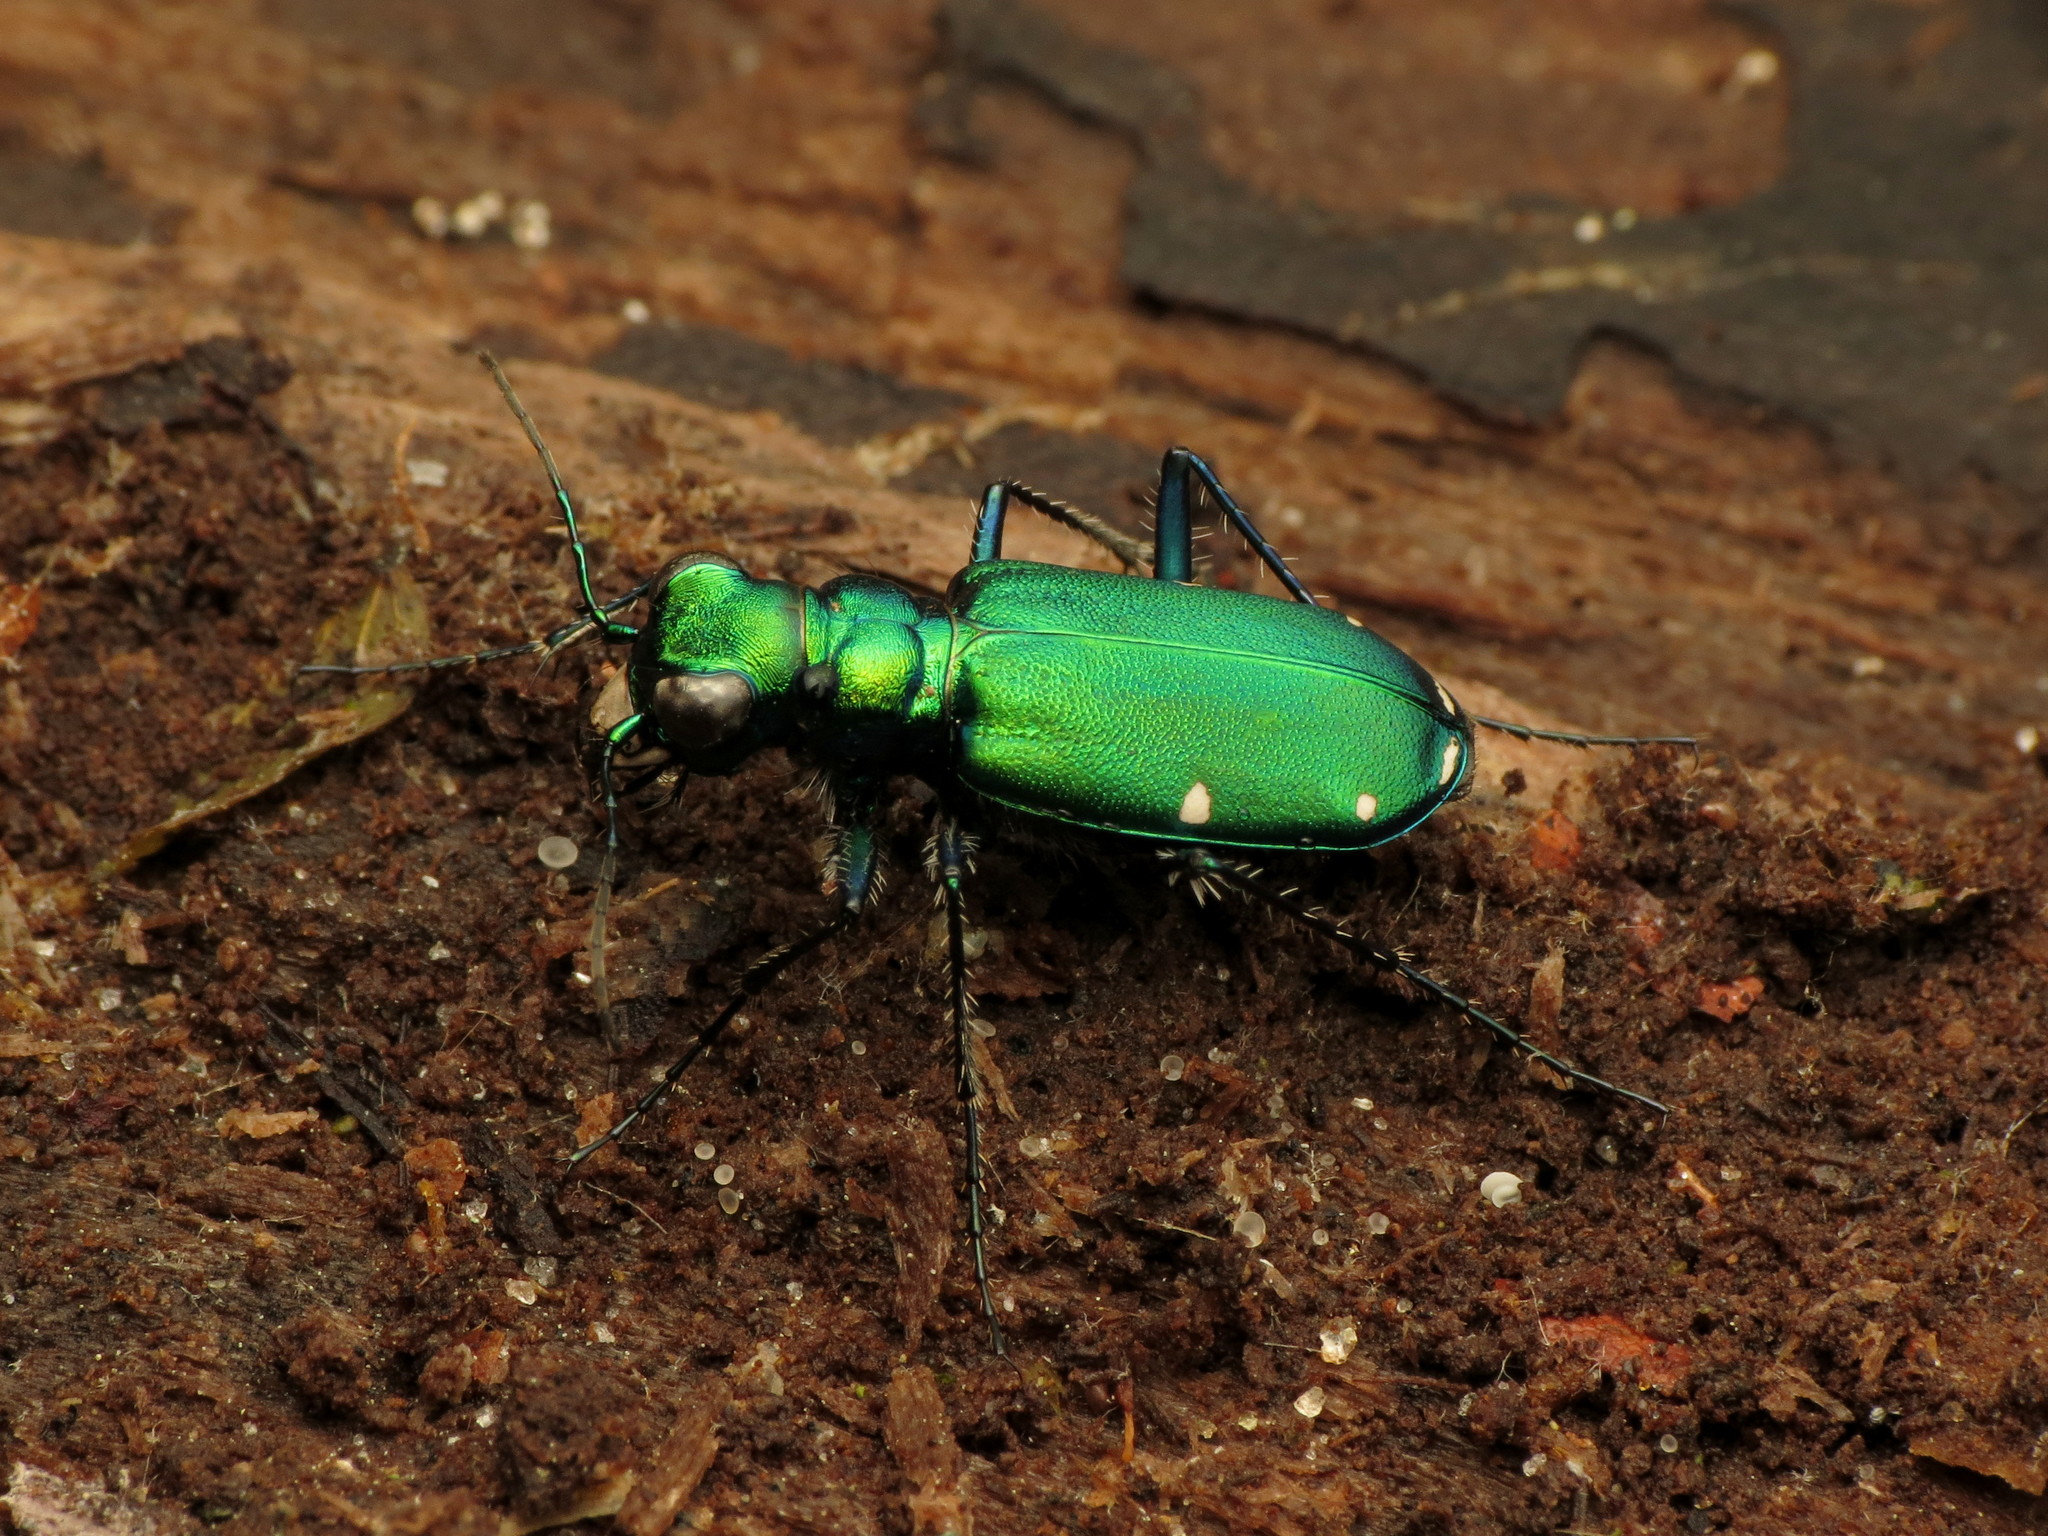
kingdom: Animalia
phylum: Arthropoda
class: Insecta
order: Coleoptera
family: Carabidae
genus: Cicindela
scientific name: Cicindela sexguttata
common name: Six-spotted tiger beetle
